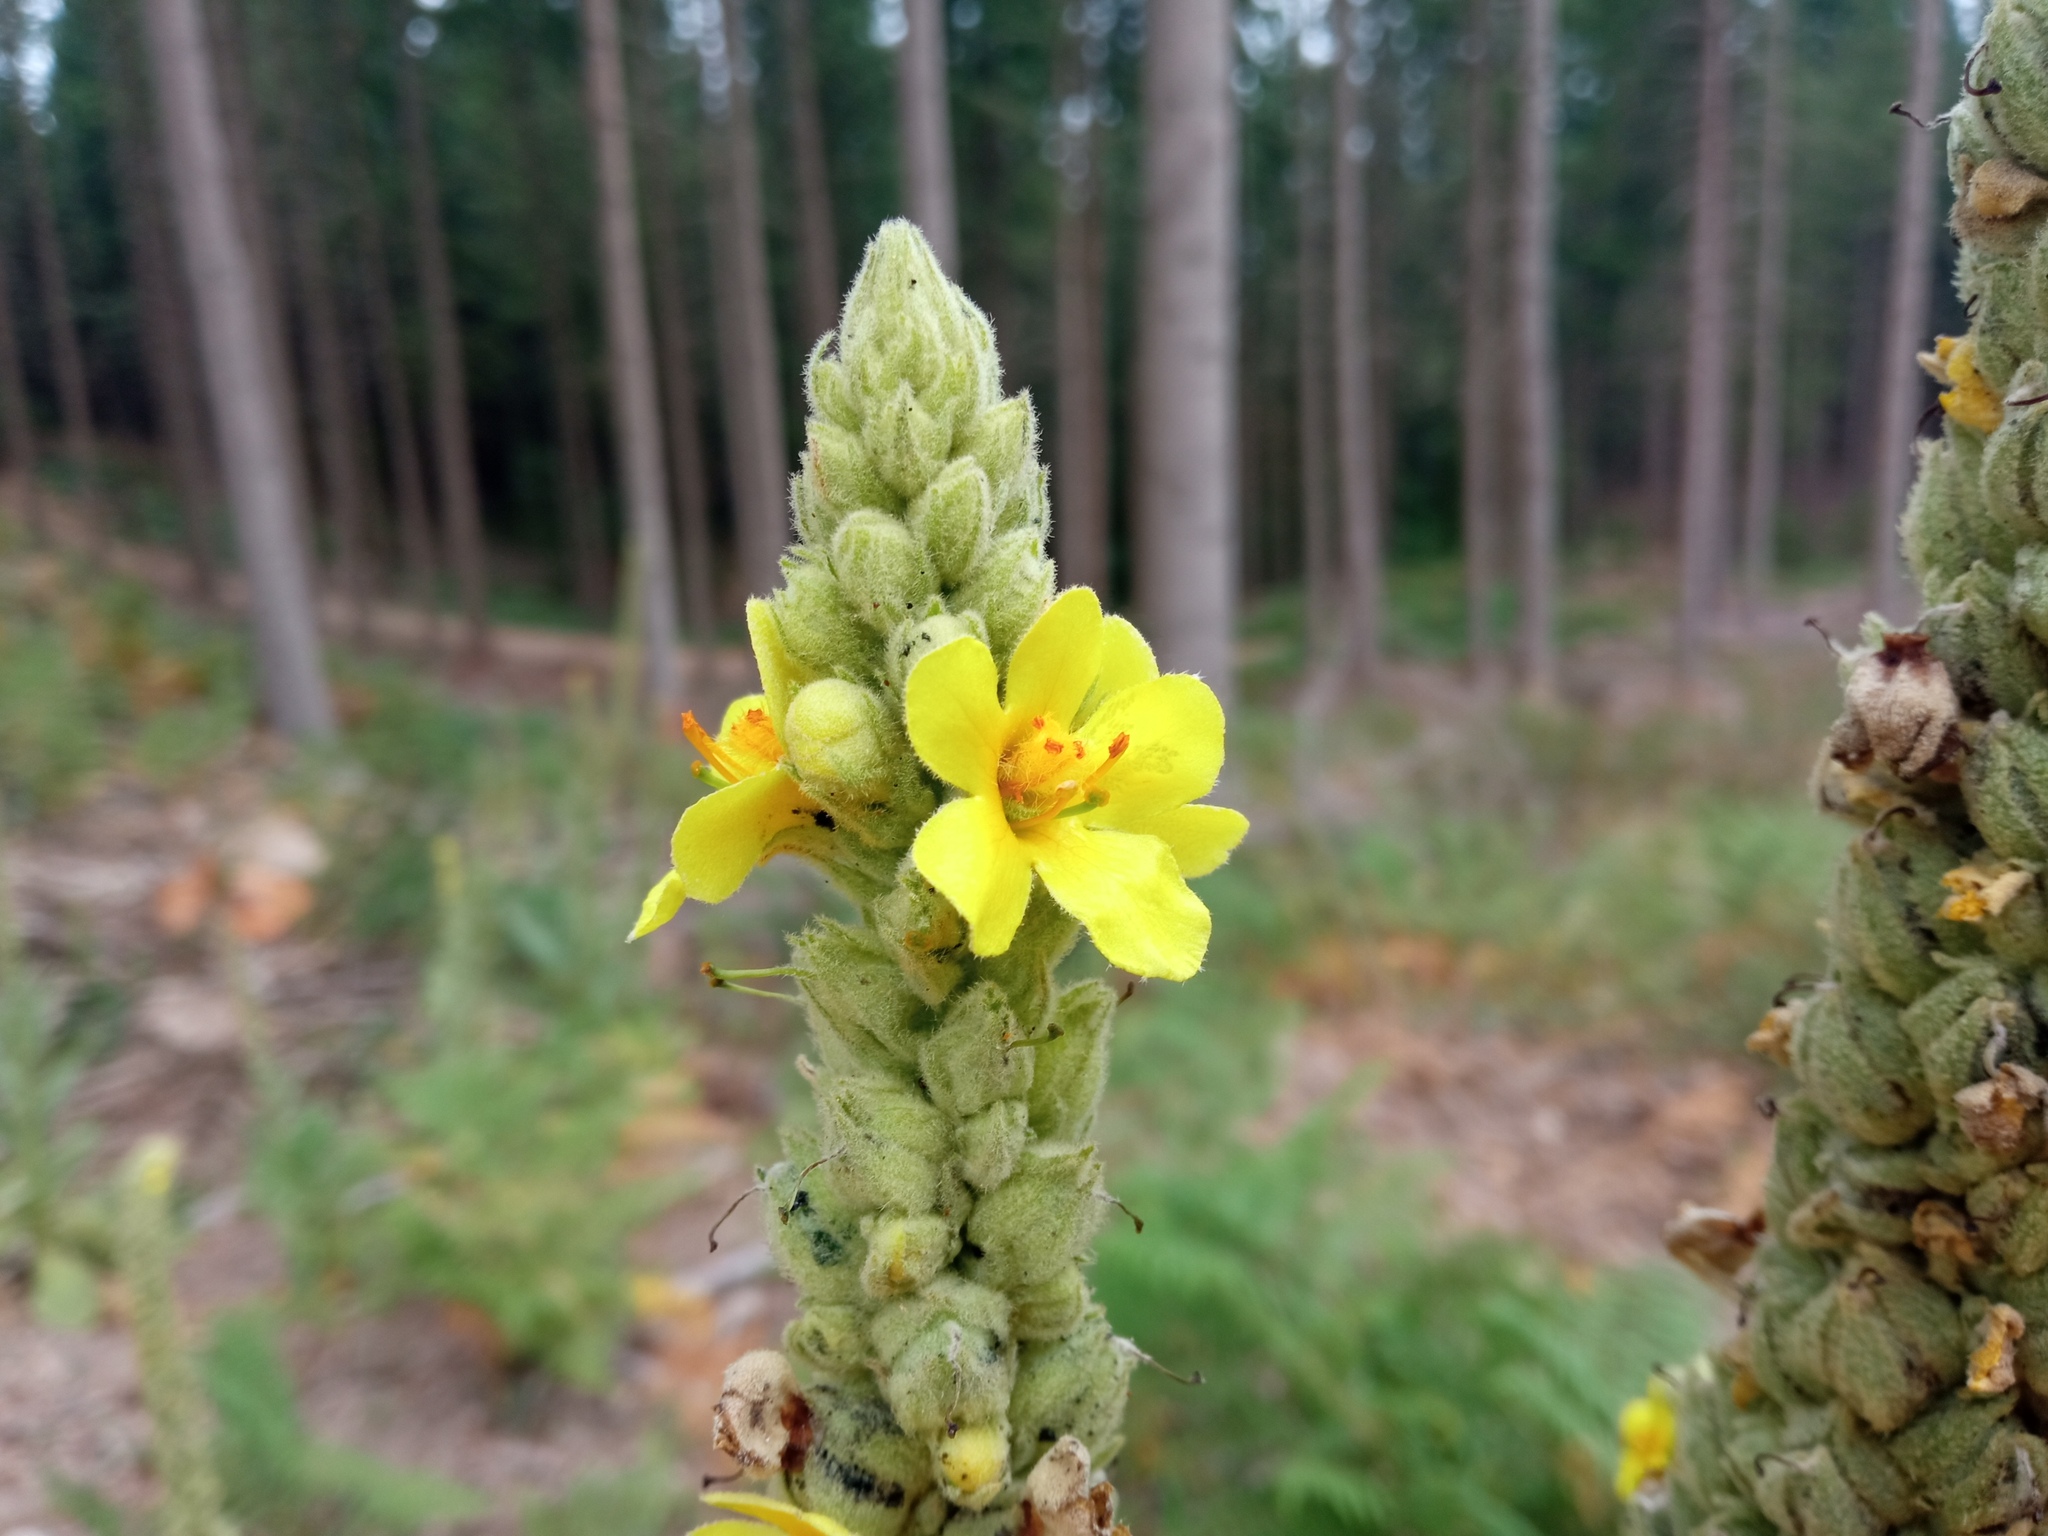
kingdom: Plantae
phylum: Tracheophyta
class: Magnoliopsida
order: Lamiales
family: Scrophulariaceae
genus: Verbascum
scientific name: Verbascum thapsus
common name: Common mullein
